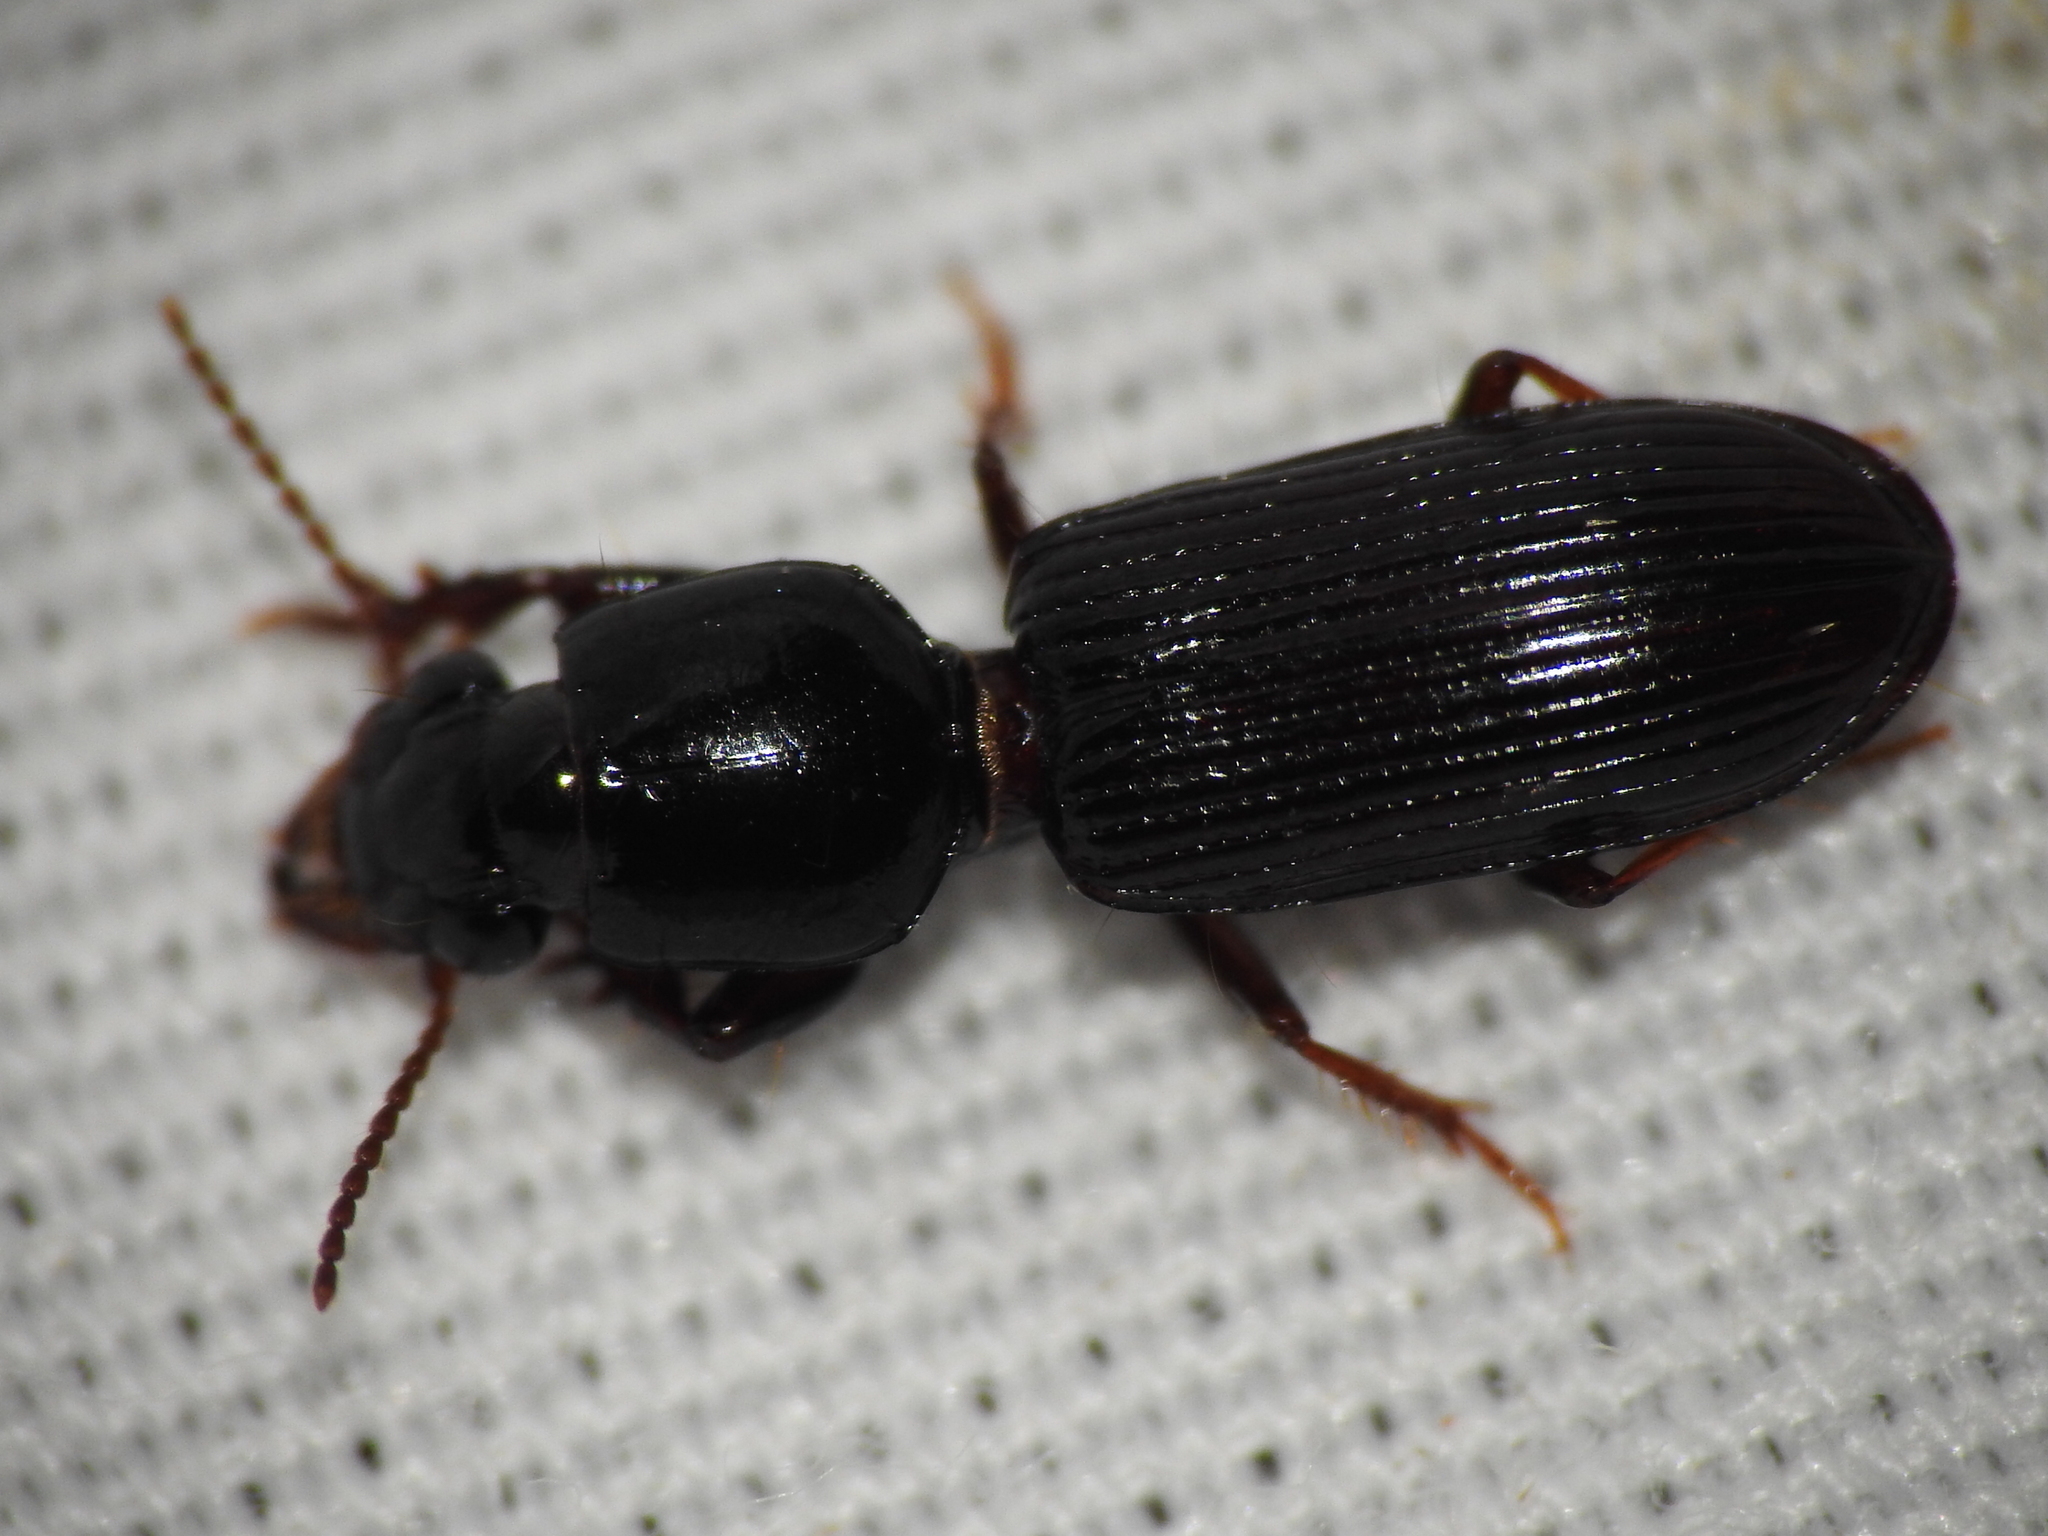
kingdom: Animalia
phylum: Arthropoda
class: Insecta
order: Coleoptera
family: Carabidae
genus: Semiclivina
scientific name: Semiclivina dentipes
